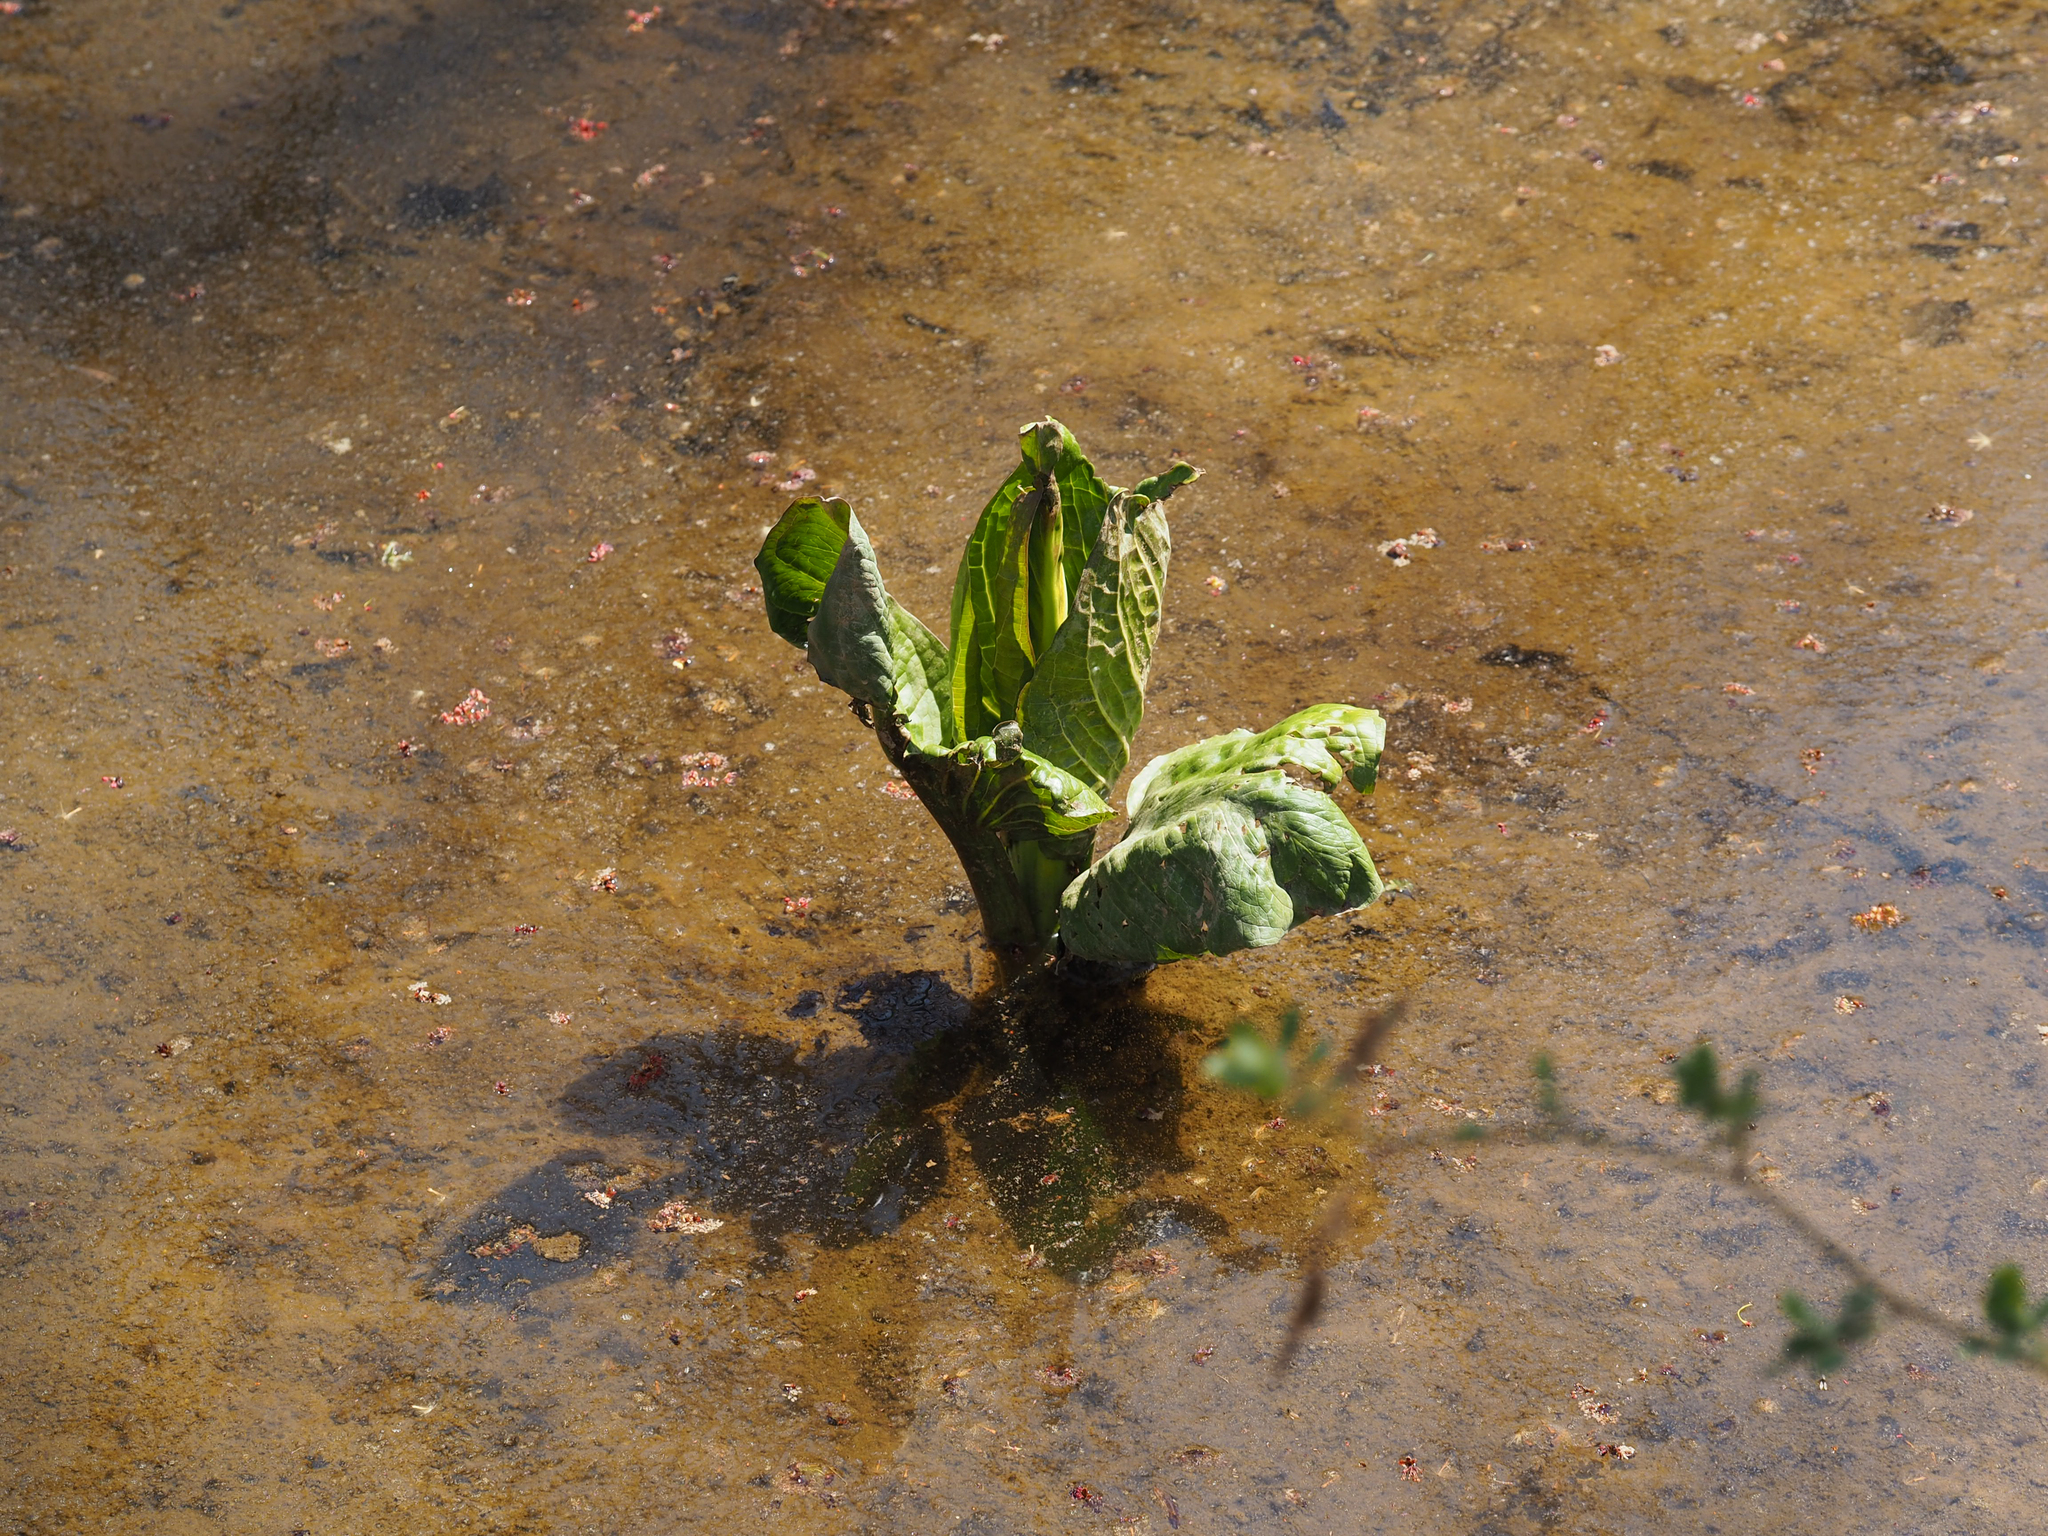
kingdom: Plantae
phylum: Tracheophyta
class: Liliopsida
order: Alismatales
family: Araceae
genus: Symplocarpus
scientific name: Symplocarpus foetidus
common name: Eastern skunk cabbage
